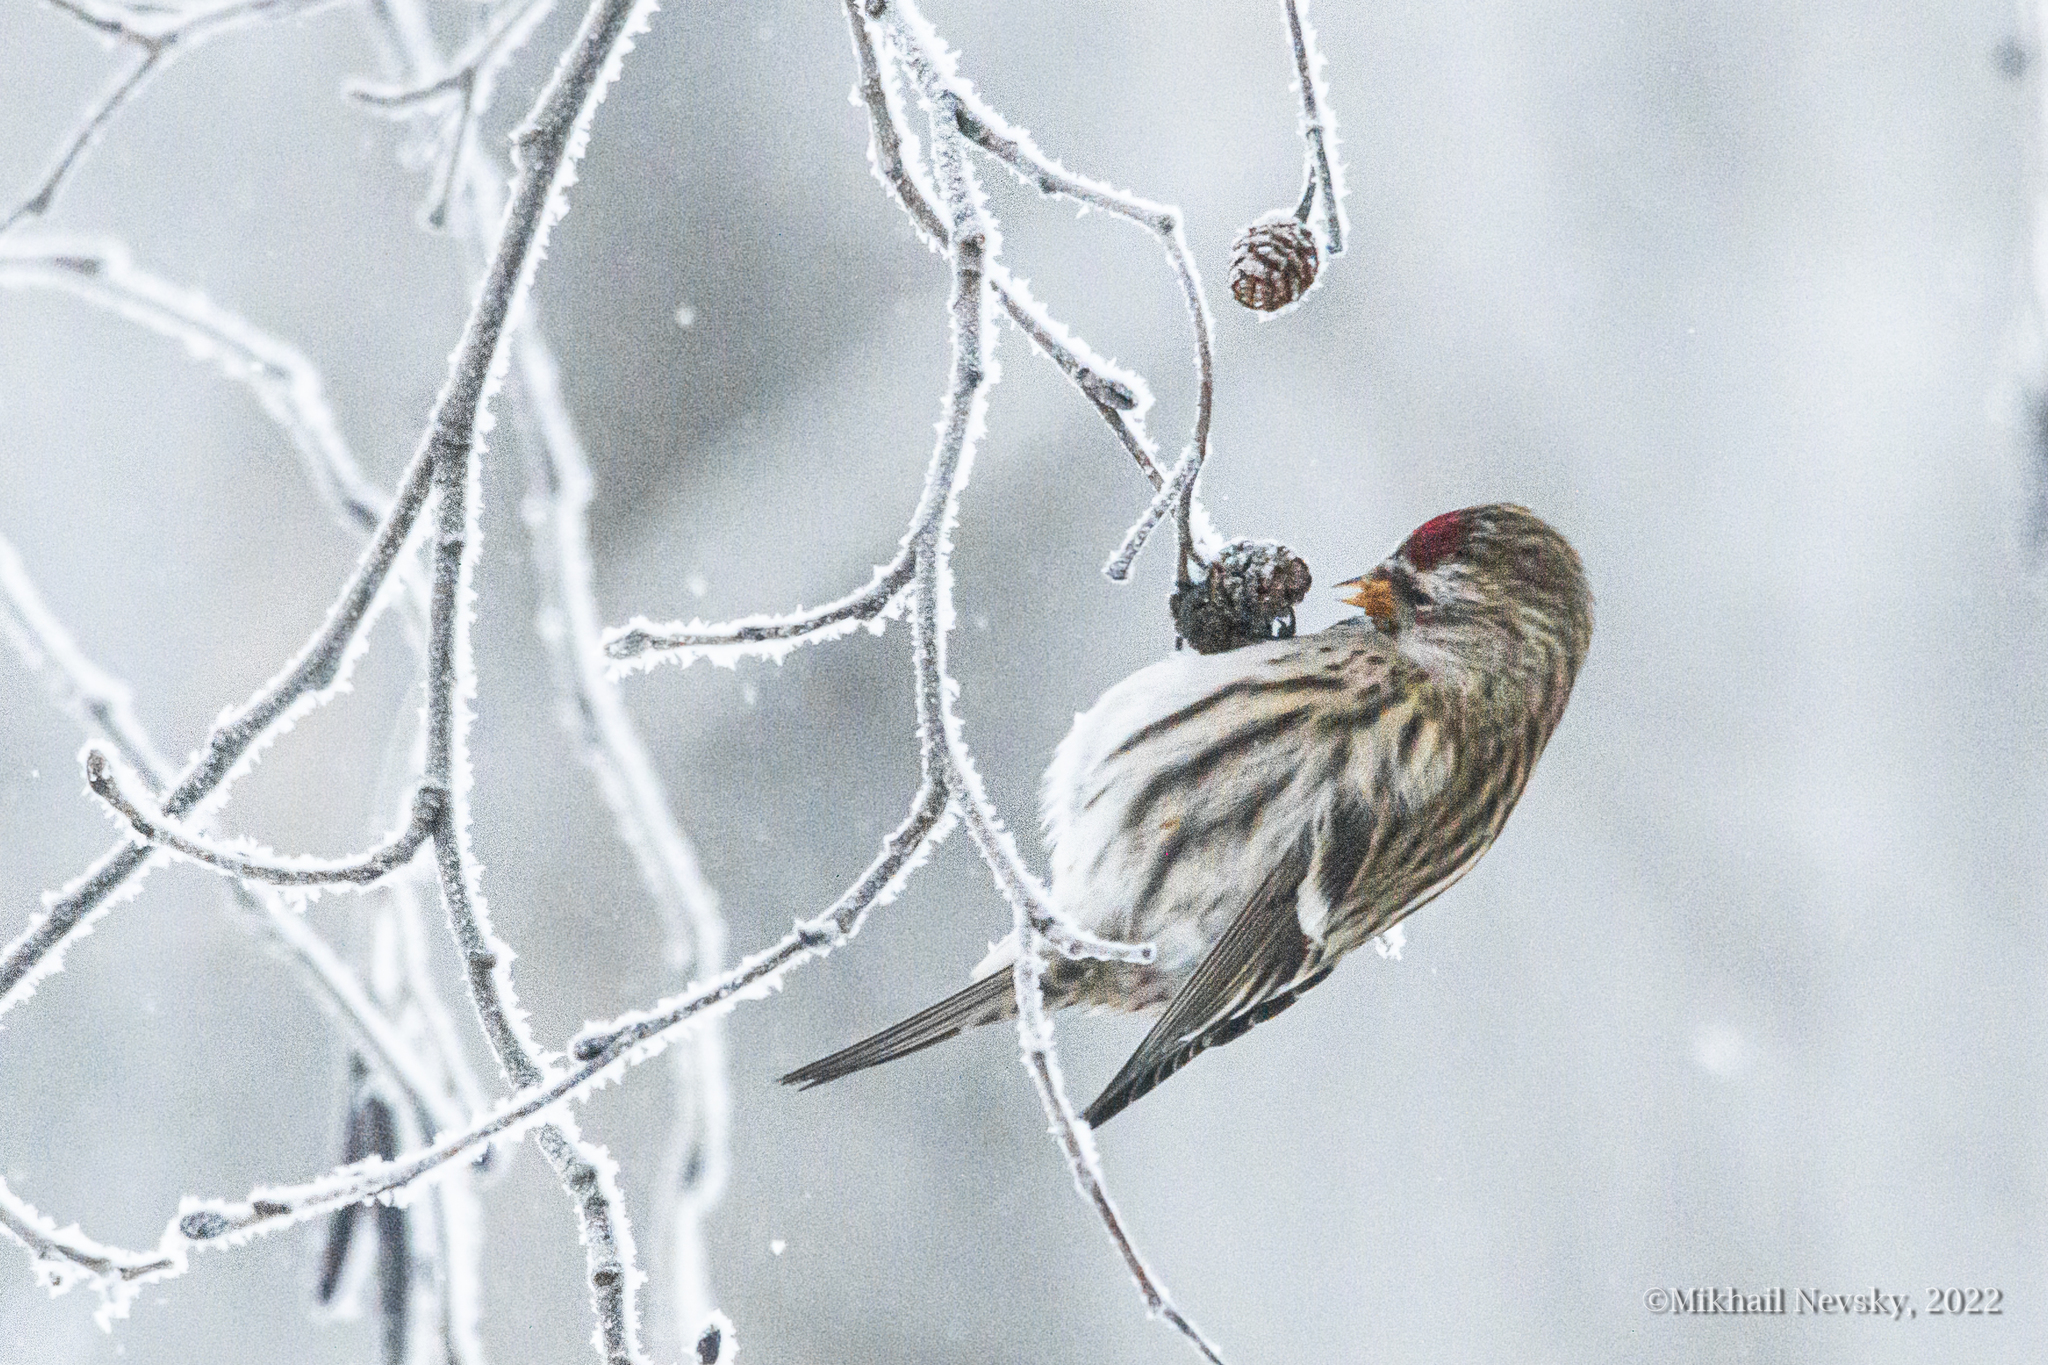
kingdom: Animalia
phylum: Chordata
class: Aves
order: Passeriformes
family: Fringillidae
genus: Acanthis
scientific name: Acanthis flammea
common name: Common redpoll
